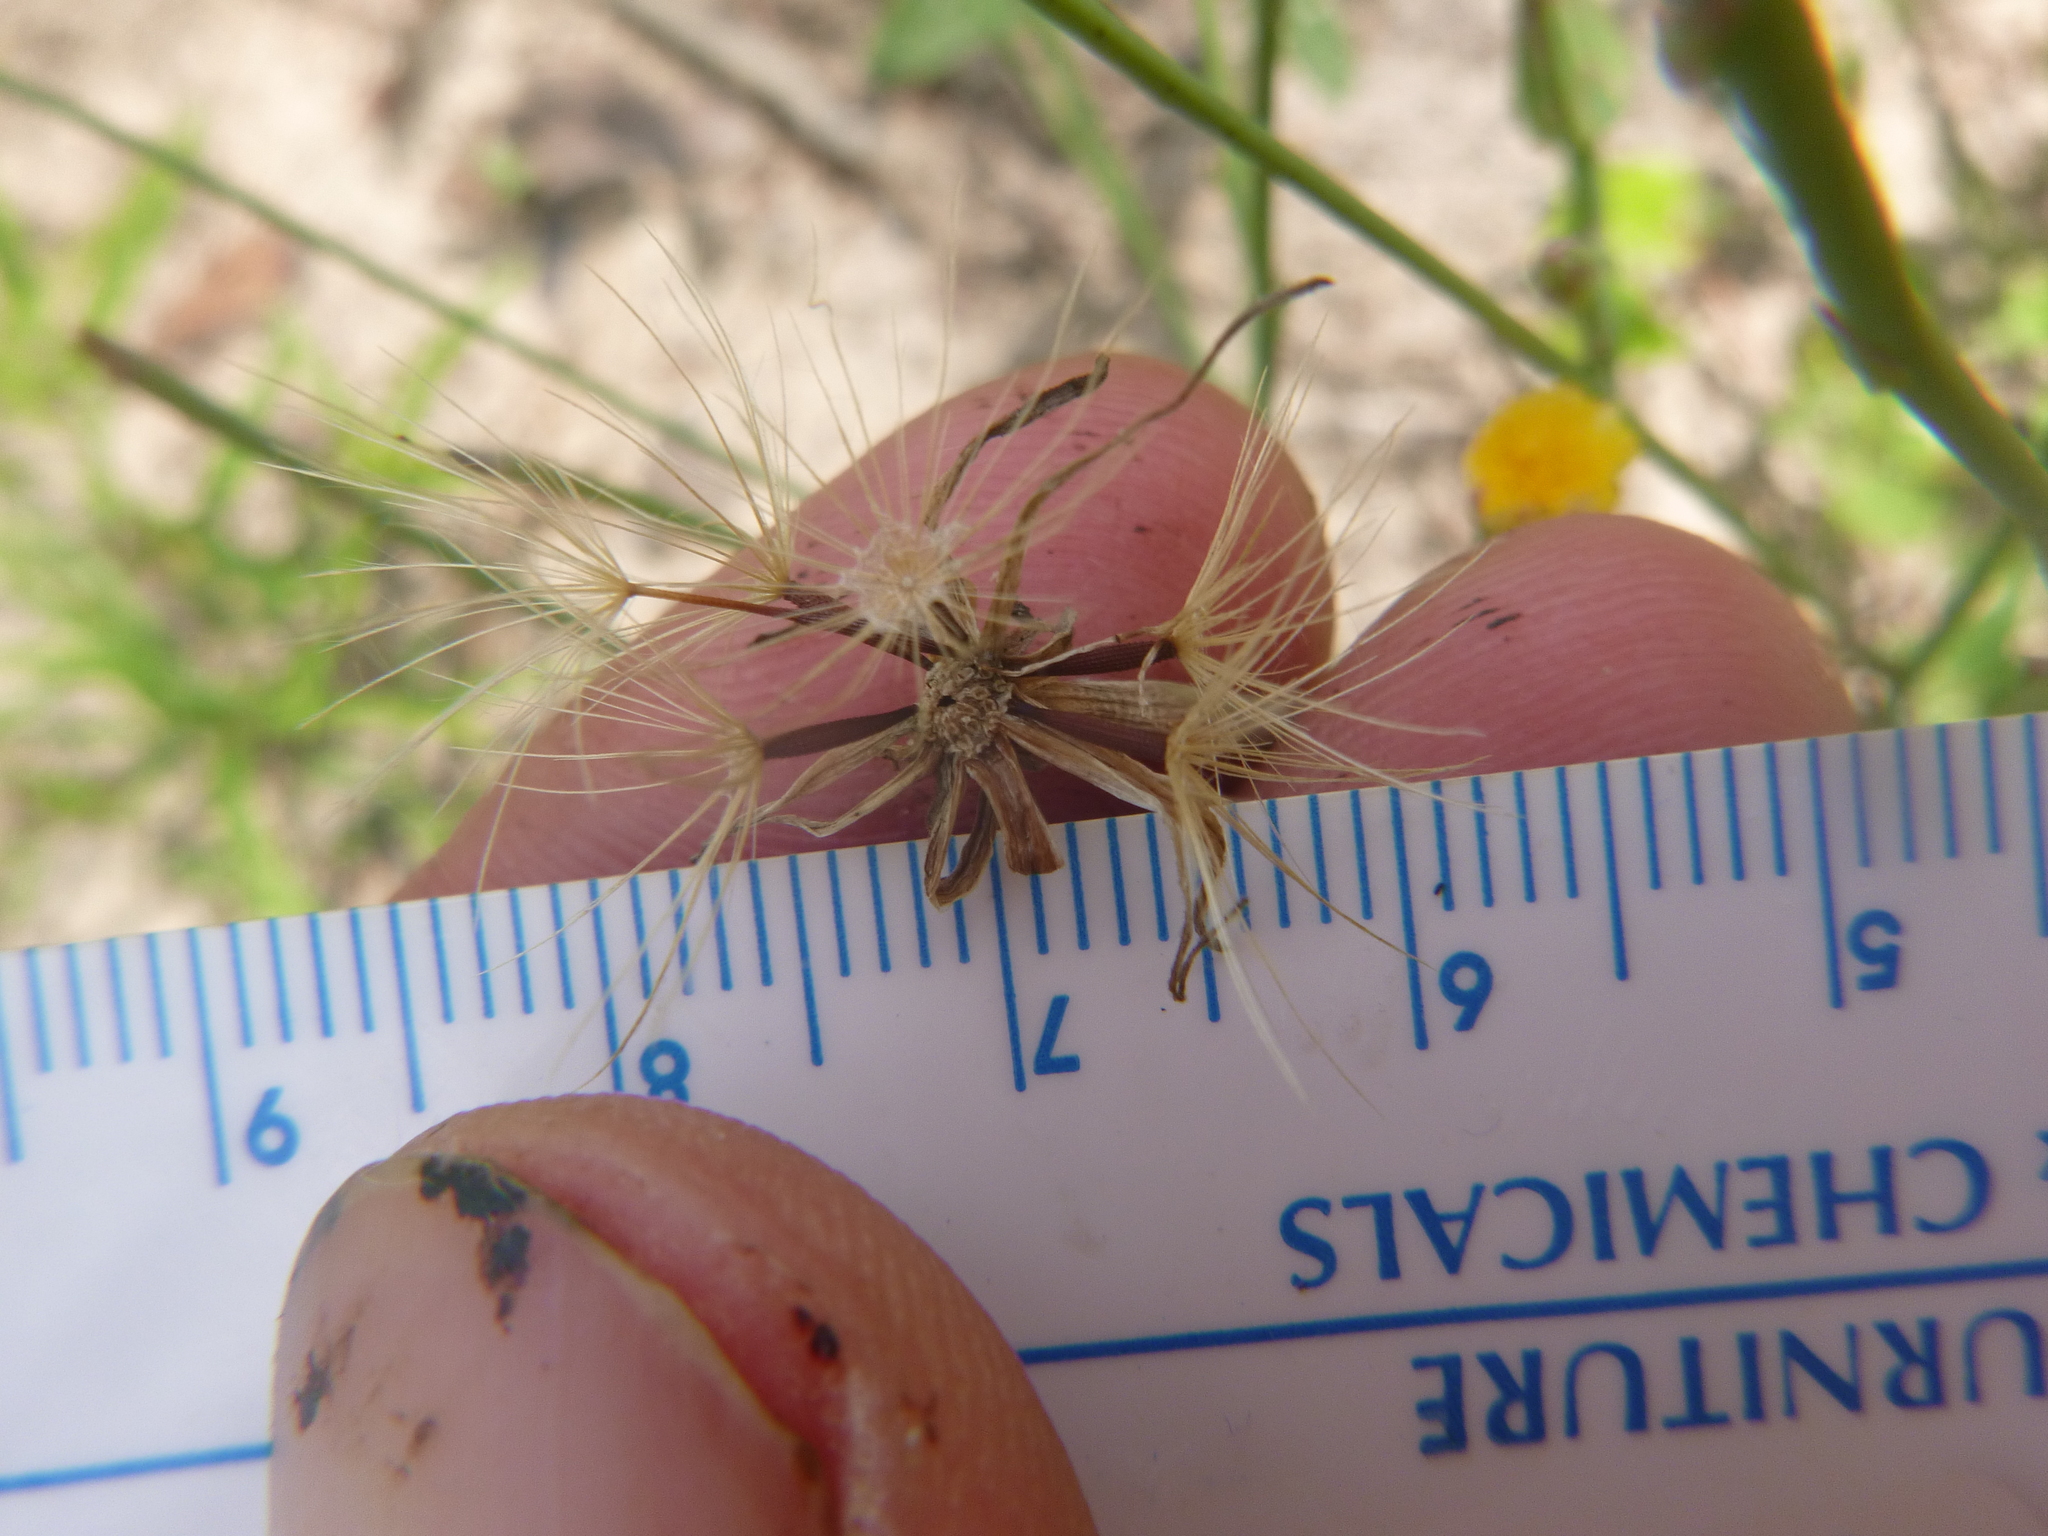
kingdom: Plantae
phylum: Tracheophyta
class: Magnoliopsida
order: Asterales
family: Asteraceae
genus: Hypochaeris
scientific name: Hypochaeris glabra
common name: Smooth catsear
